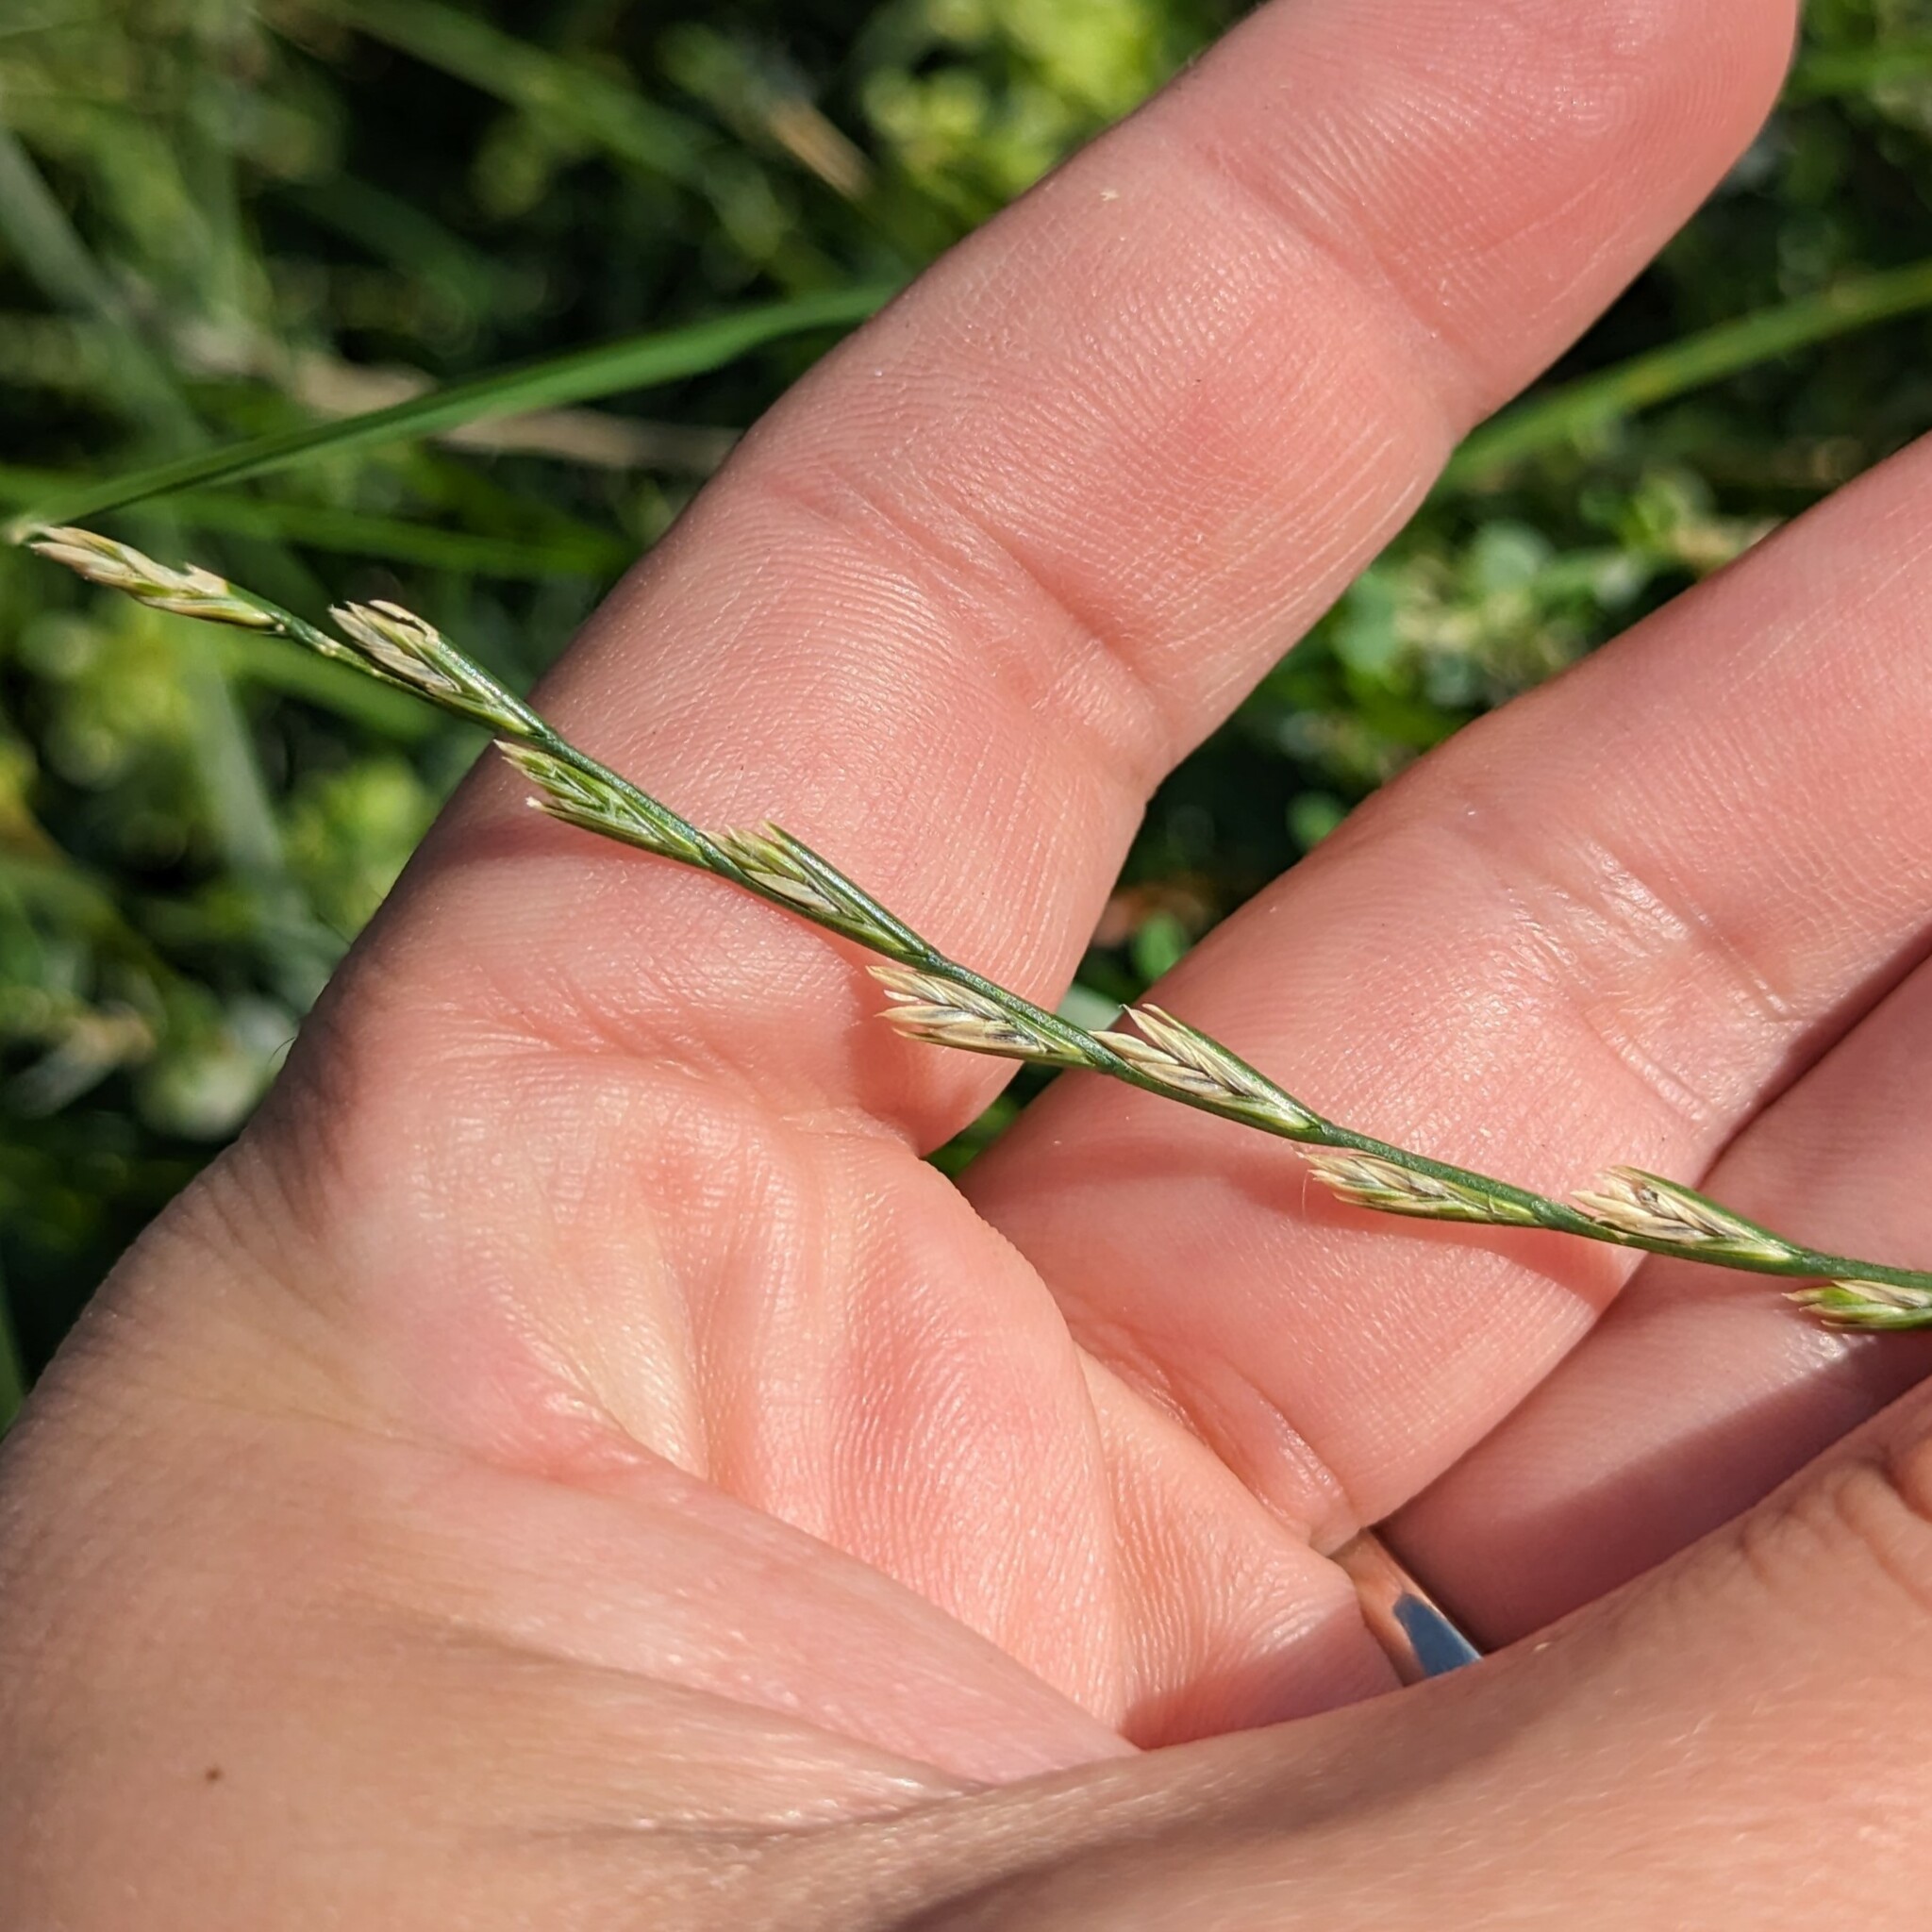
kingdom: Plantae
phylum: Tracheophyta
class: Liliopsida
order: Poales
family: Poaceae
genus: Lolium
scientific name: Lolium perenne
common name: Perennial ryegrass
